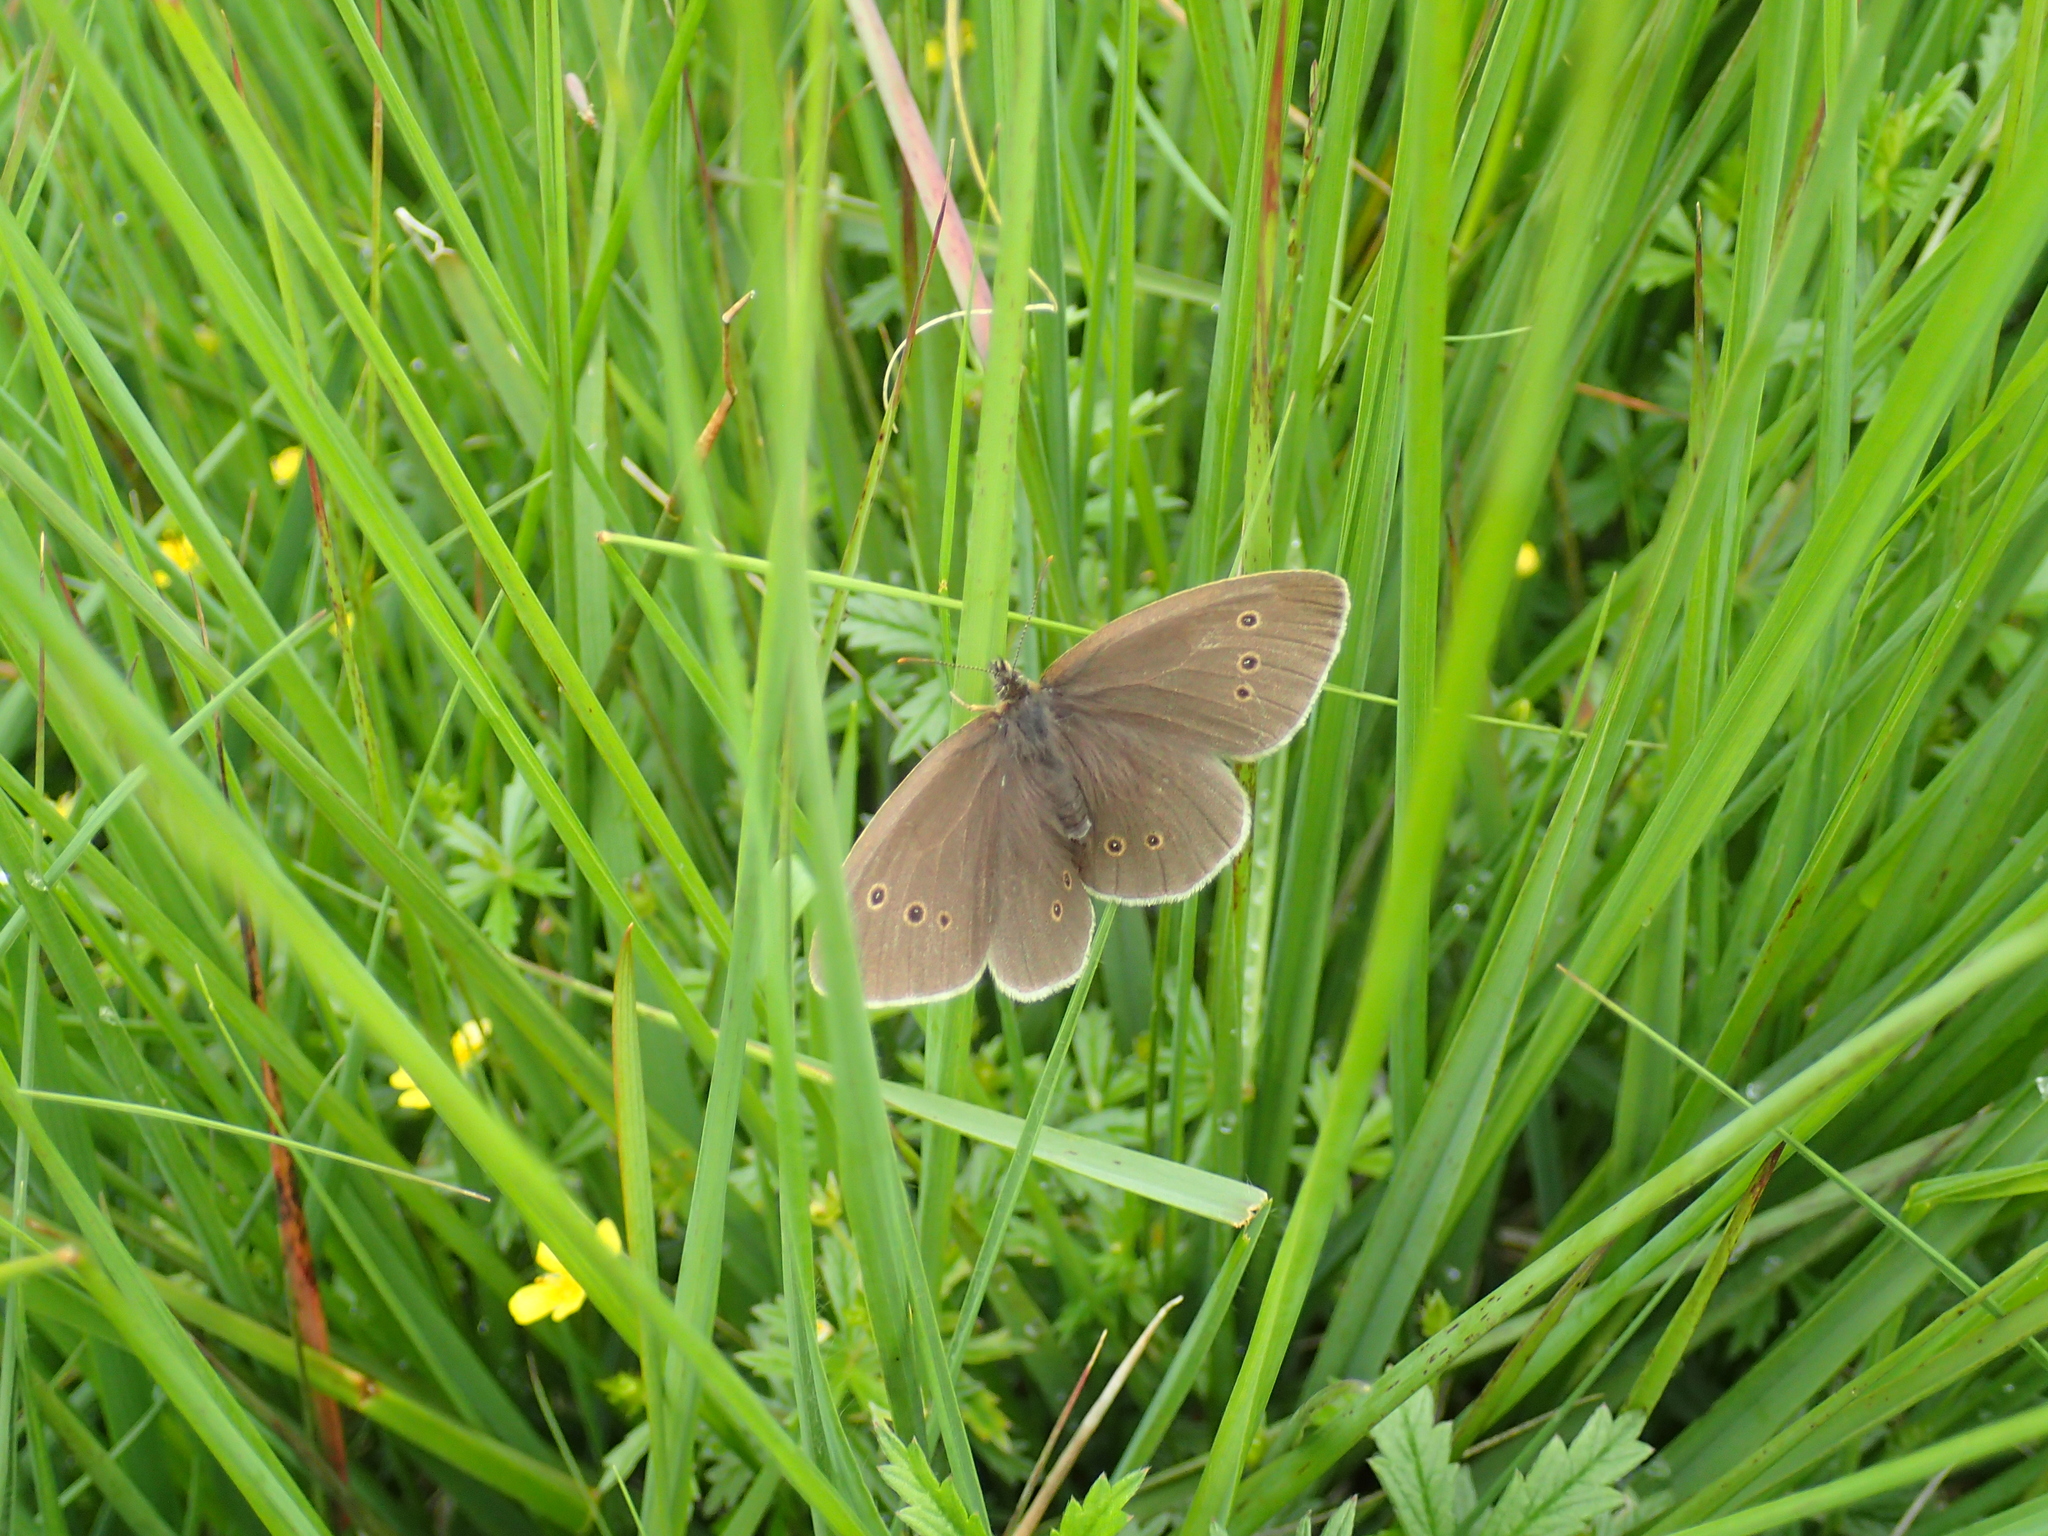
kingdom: Animalia
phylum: Arthropoda
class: Insecta
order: Lepidoptera
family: Nymphalidae
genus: Aphantopus
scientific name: Aphantopus hyperantus
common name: Ringlet
